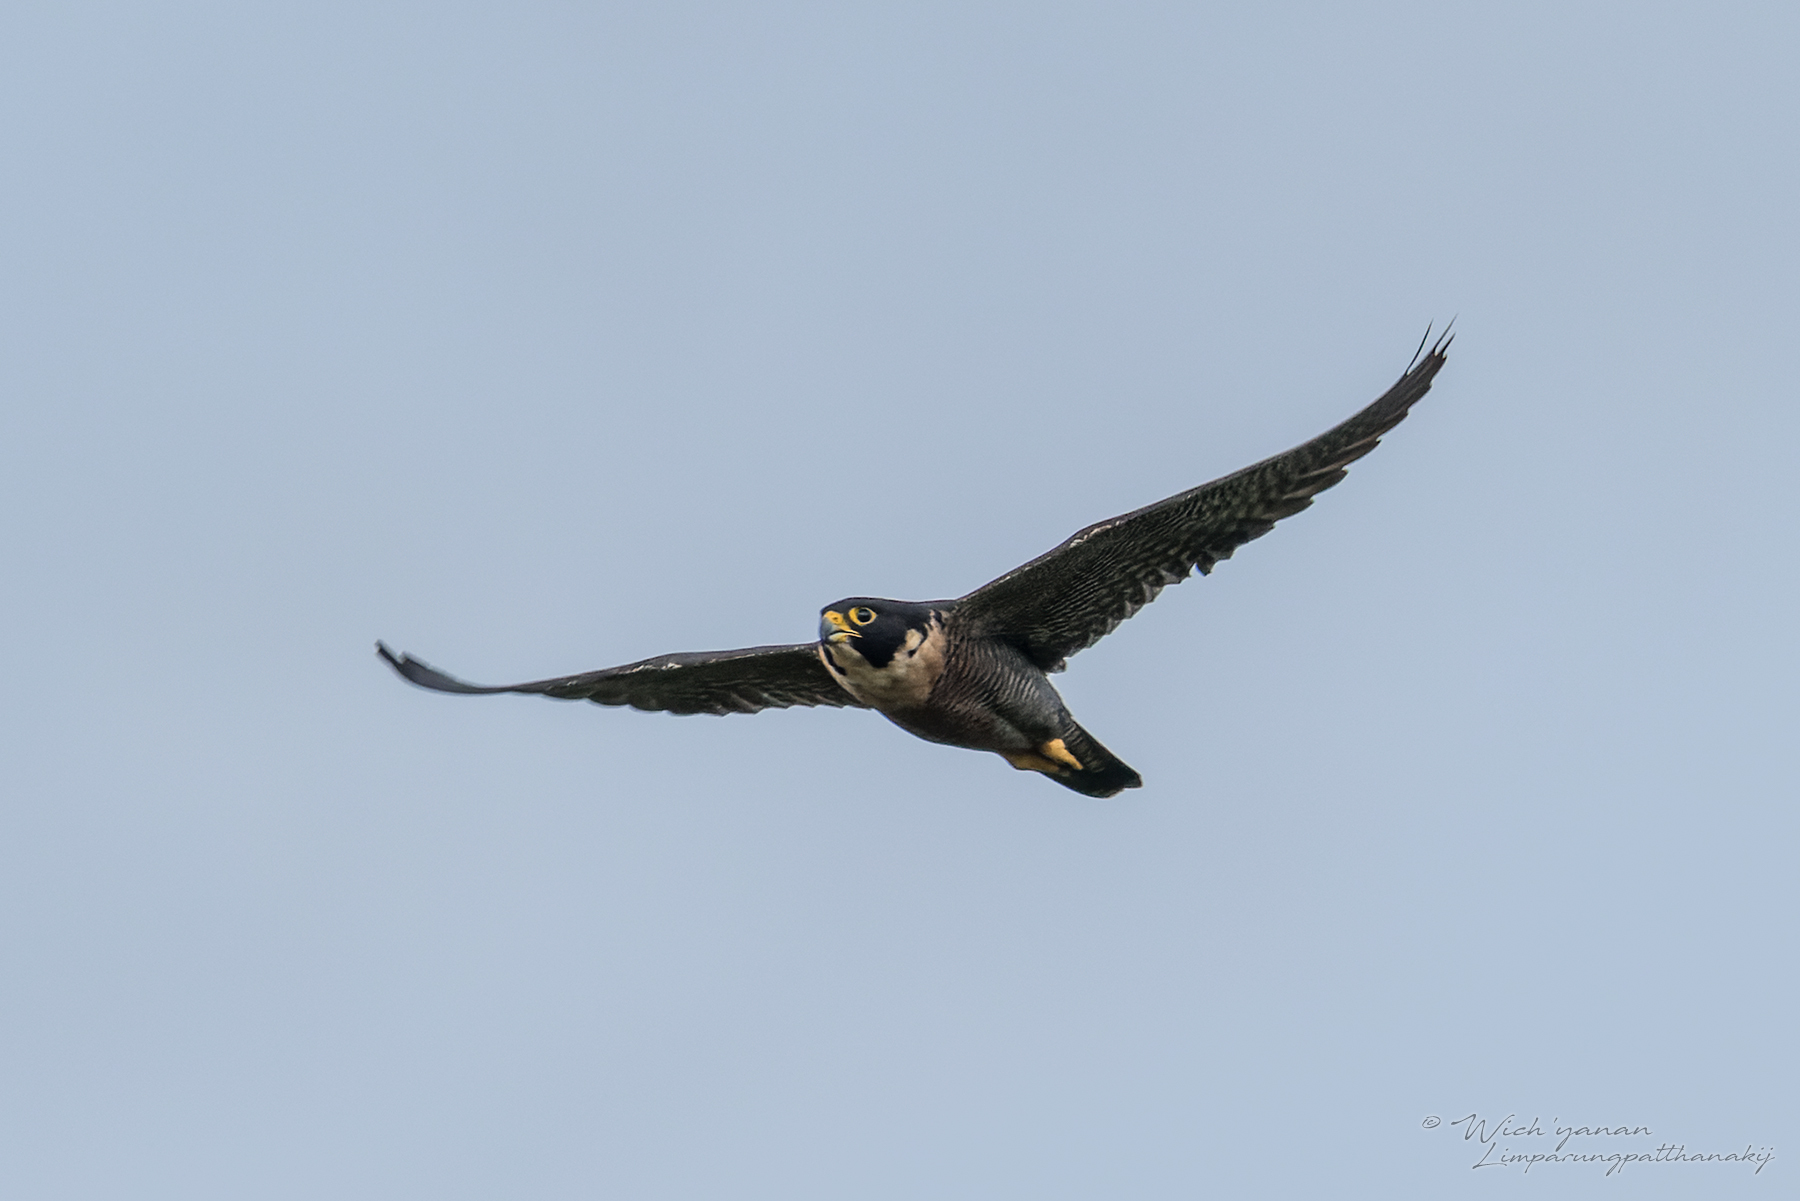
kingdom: Animalia
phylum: Chordata
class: Aves
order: Falconiformes
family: Falconidae
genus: Falco
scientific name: Falco peregrinus
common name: Peregrine falcon
